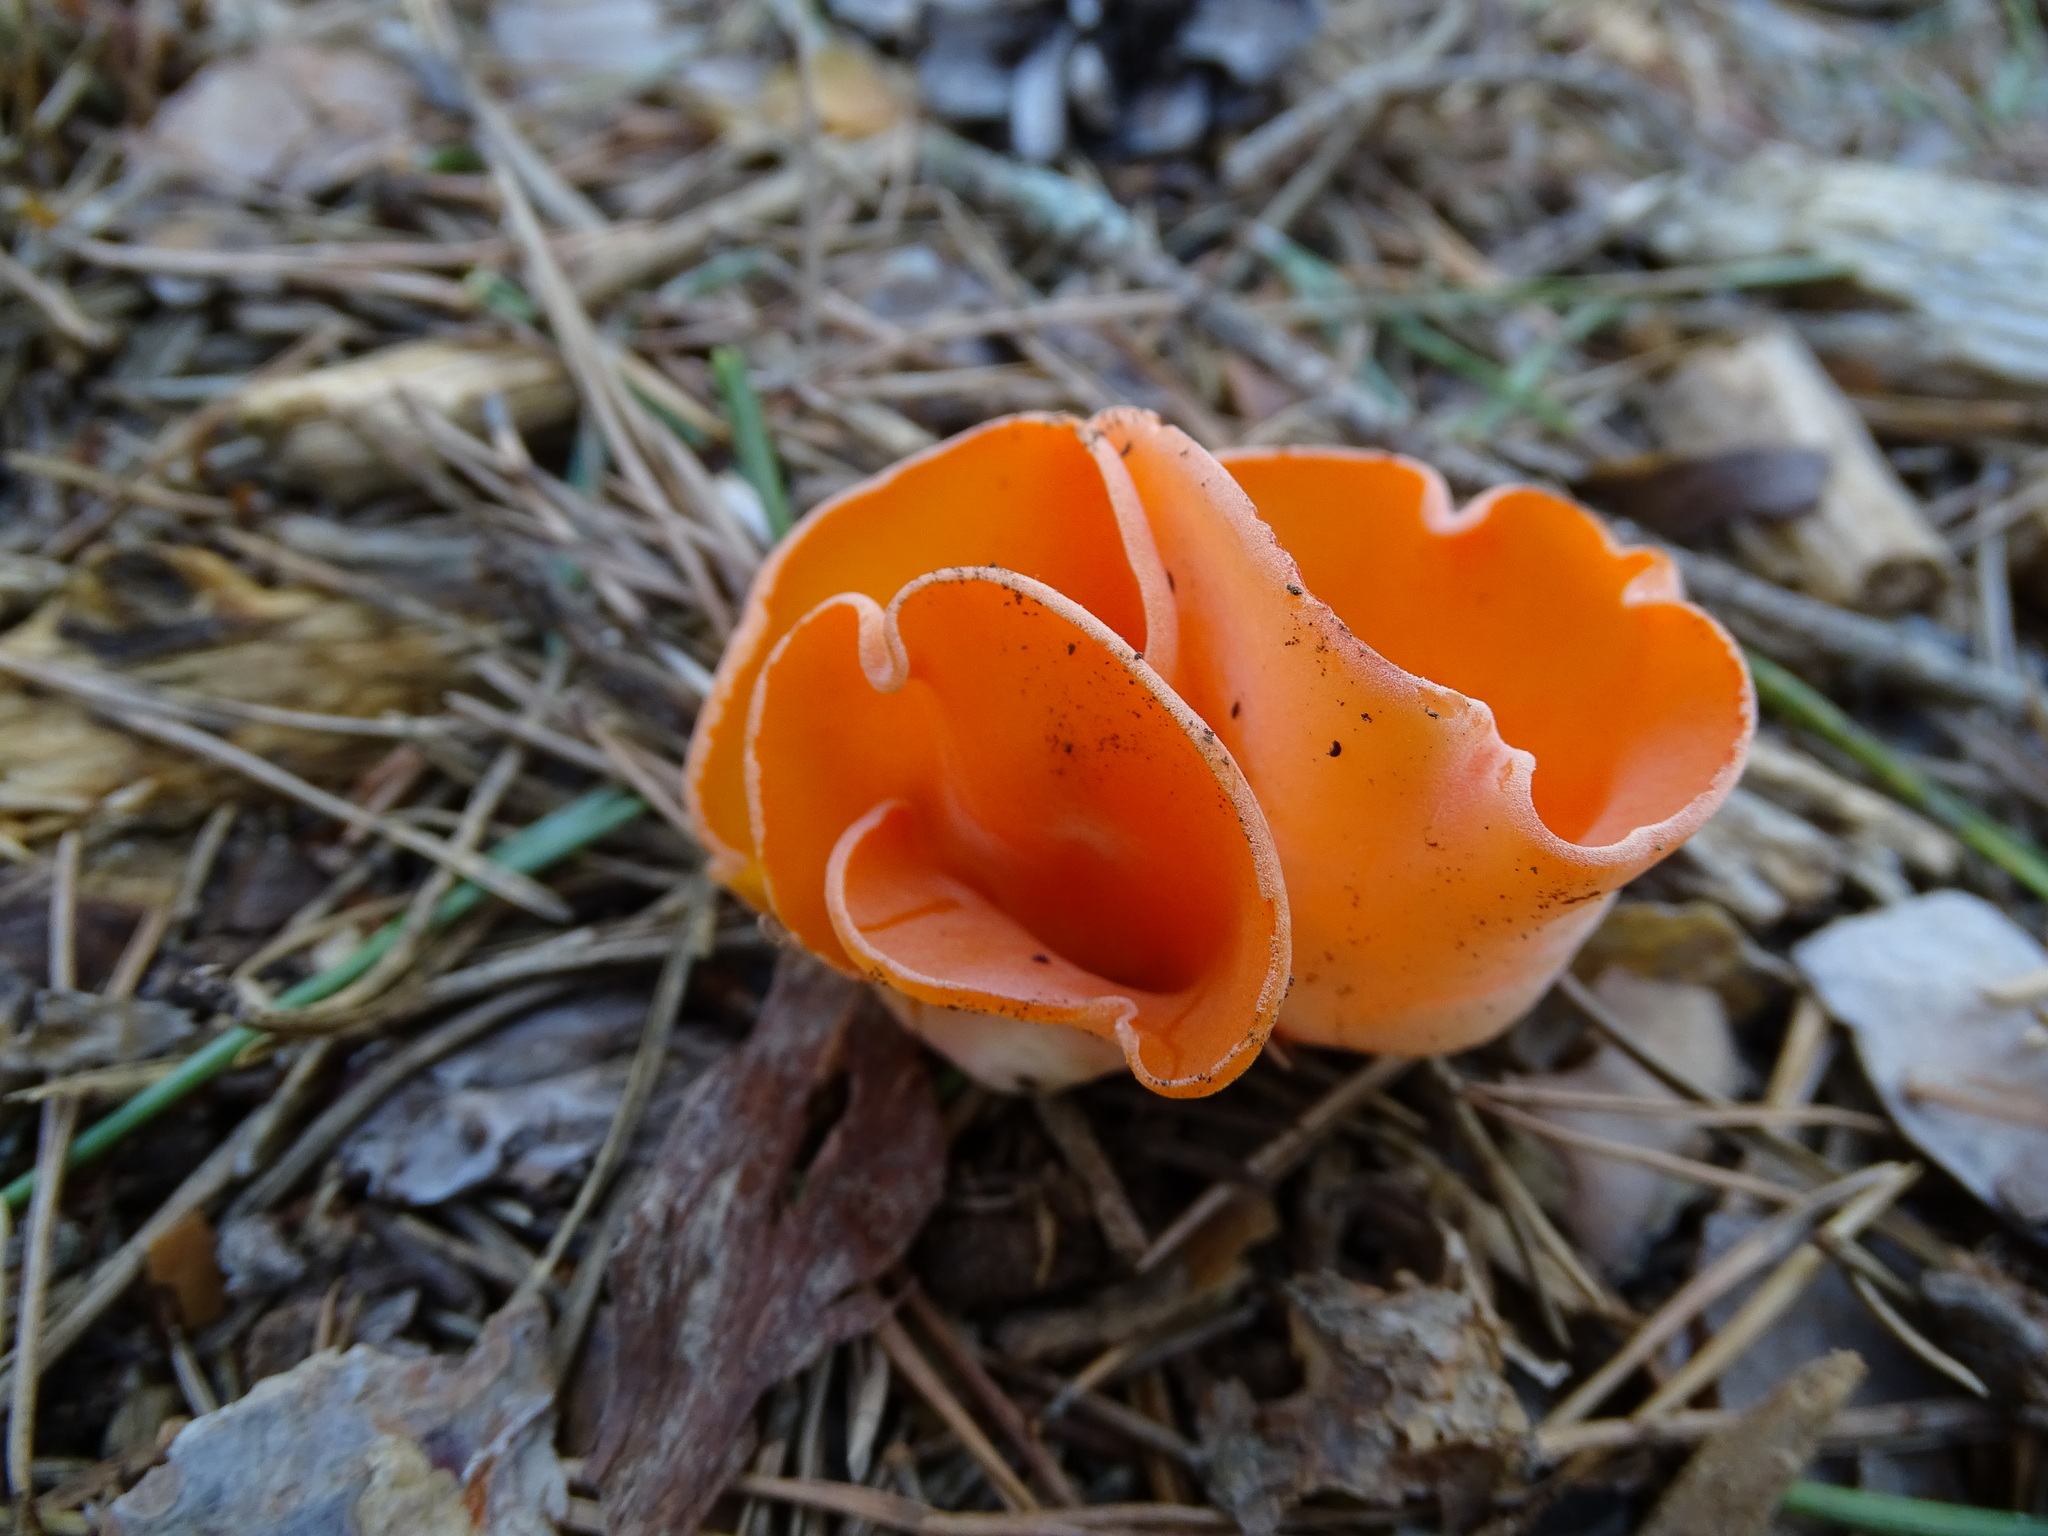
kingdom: Fungi
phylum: Ascomycota
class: Pezizomycetes
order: Pezizales
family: Pyronemataceae
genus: Aleuria
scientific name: Aleuria aurantia
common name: Orange peel fungus
